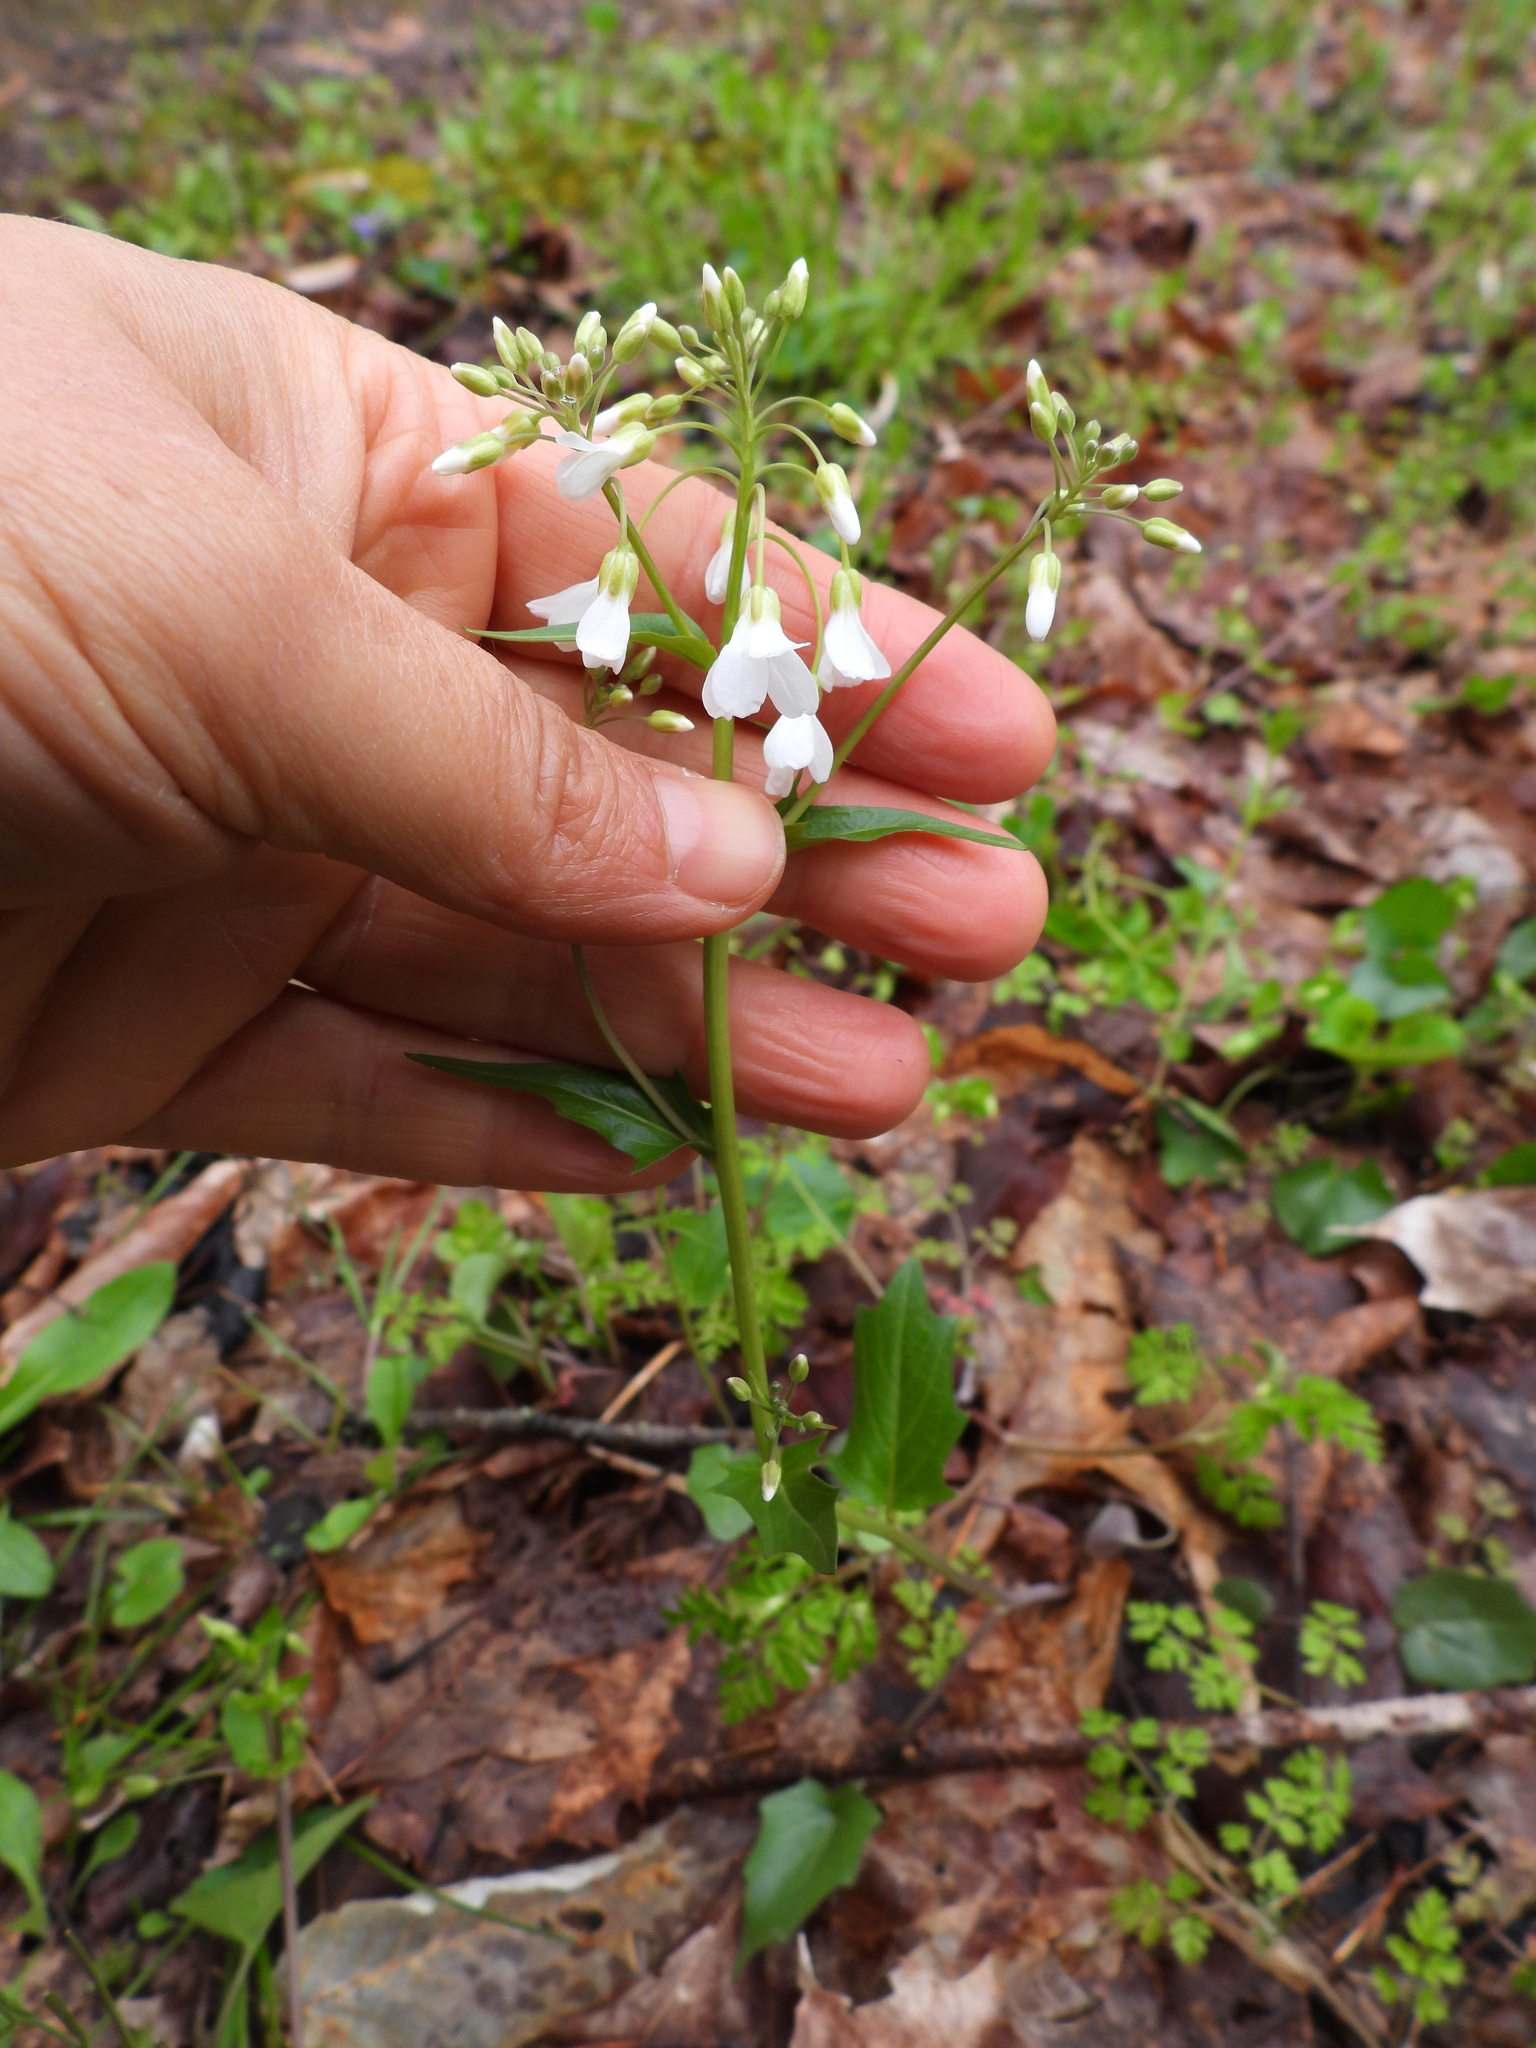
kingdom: Plantae
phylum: Tracheophyta
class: Magnoliopsida
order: Brassicales
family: Brassicaceae
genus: Cardamine
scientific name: Cardamine bulbosa
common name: Spring cress
